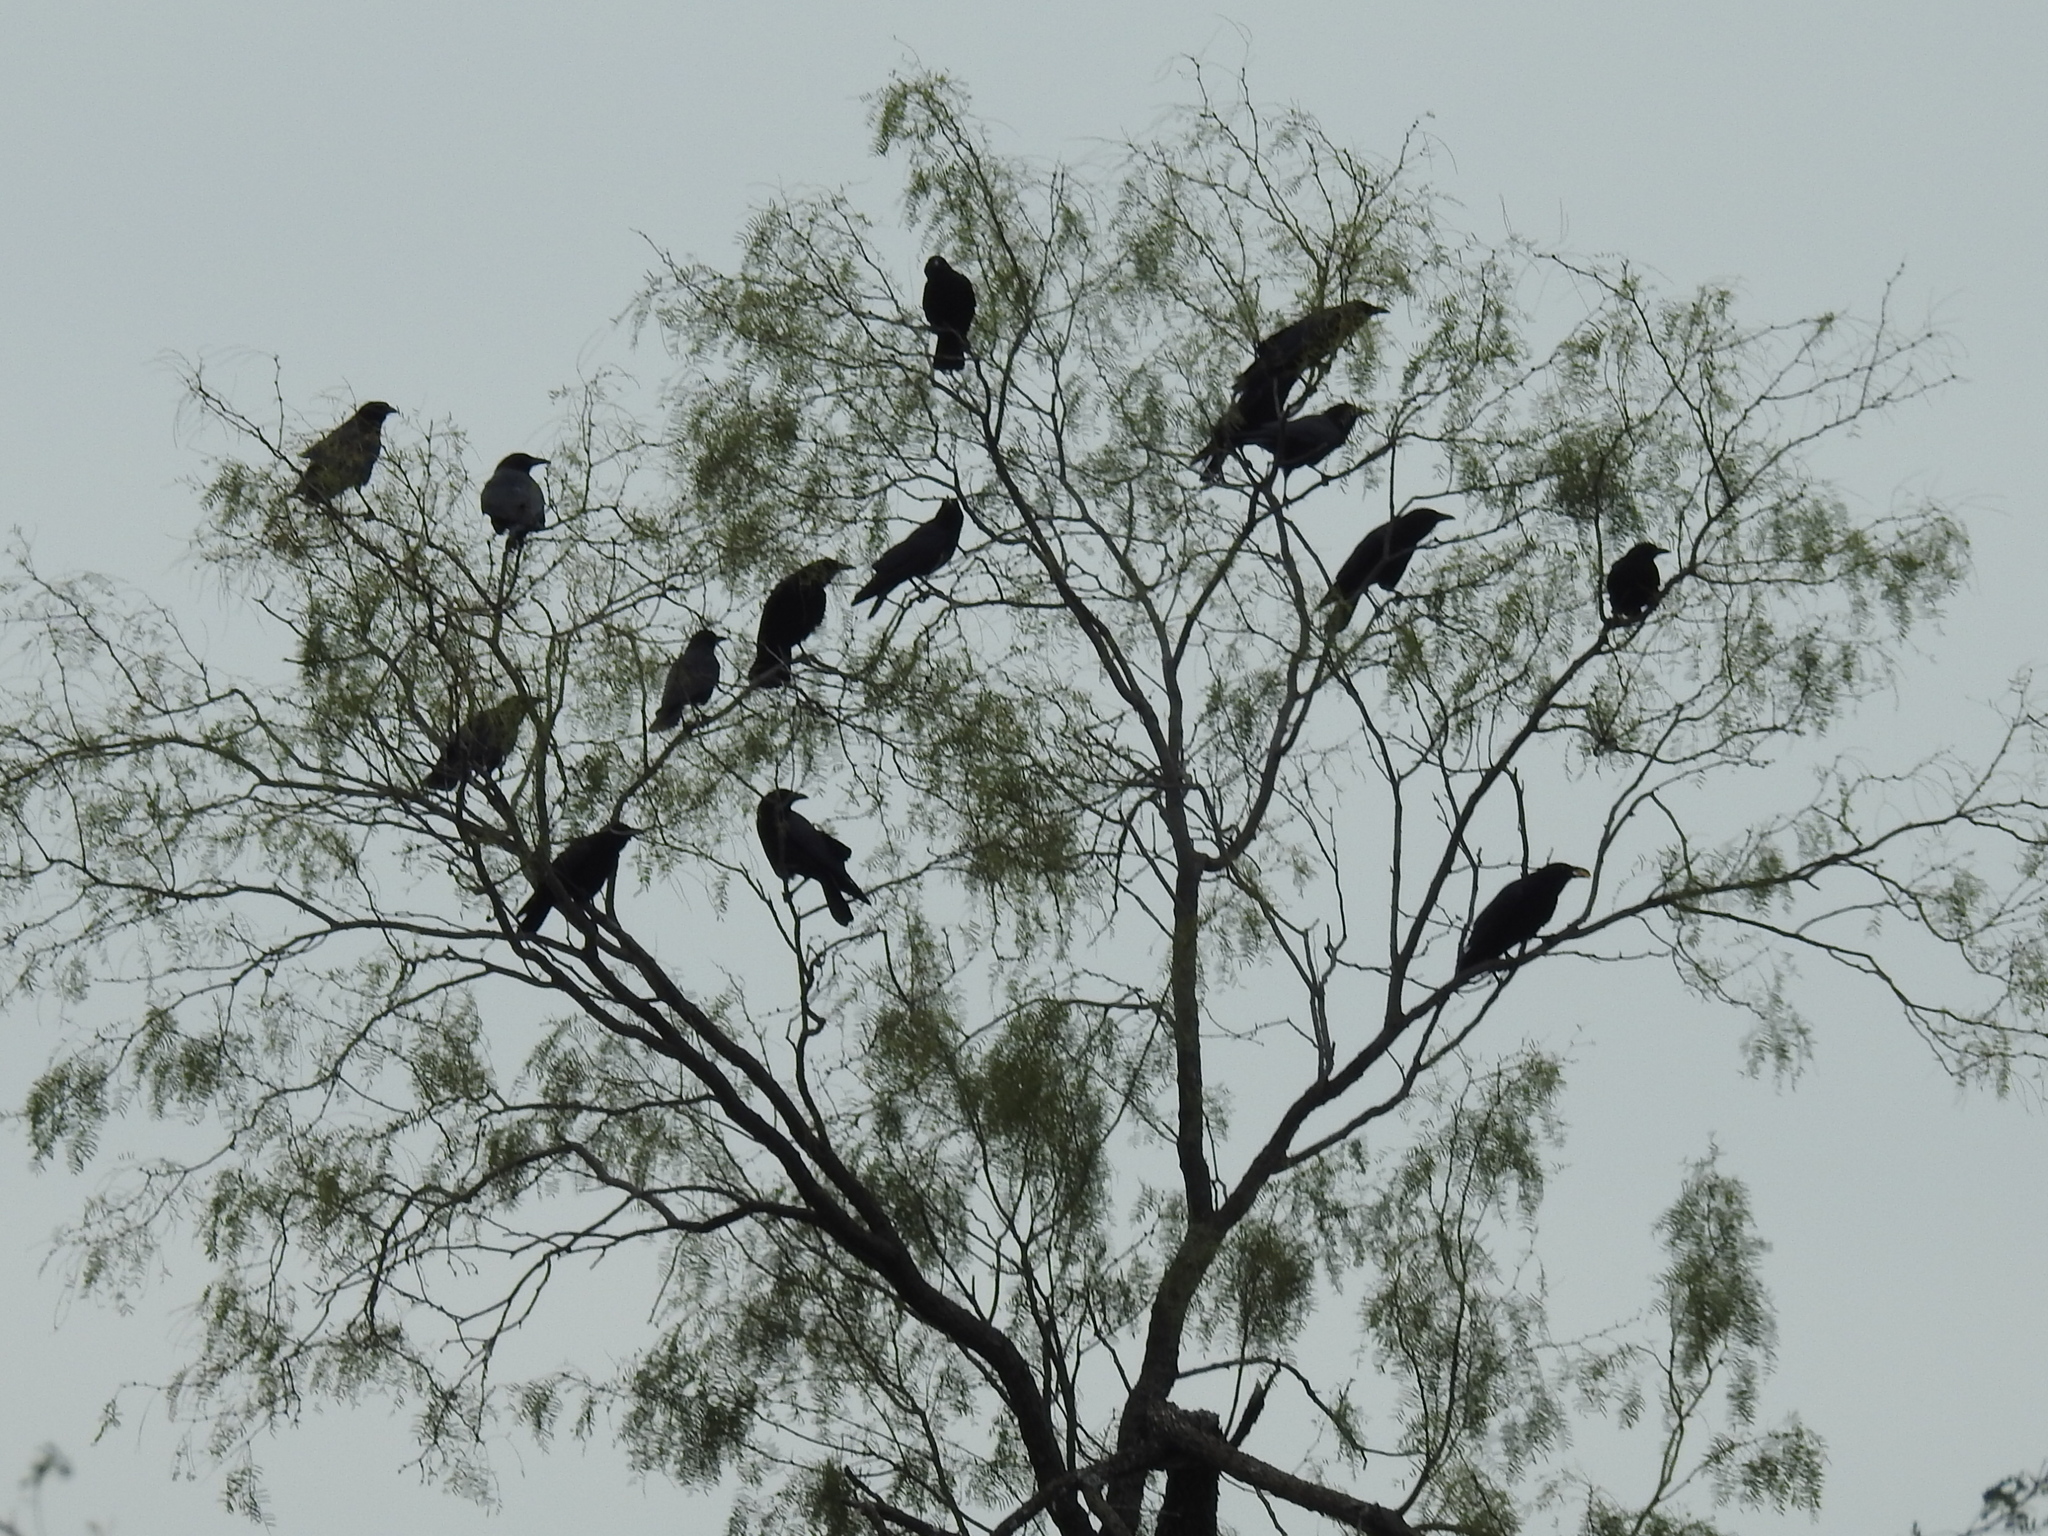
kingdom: Animalia
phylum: Chordata
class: Aves
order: Passeriformes
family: Corvidae
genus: Corvus
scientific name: Corvus brachyrhynchos
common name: American crow
